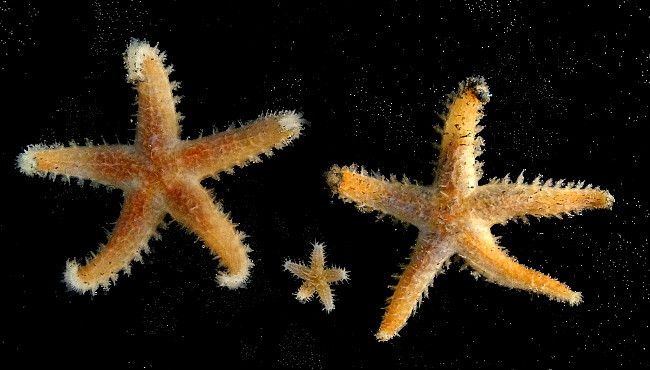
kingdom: Animalia
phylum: Echinodermata
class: Asteroidea
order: Forcipulatida
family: Asteriidae
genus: Urasterias
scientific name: Urasterias lincki
